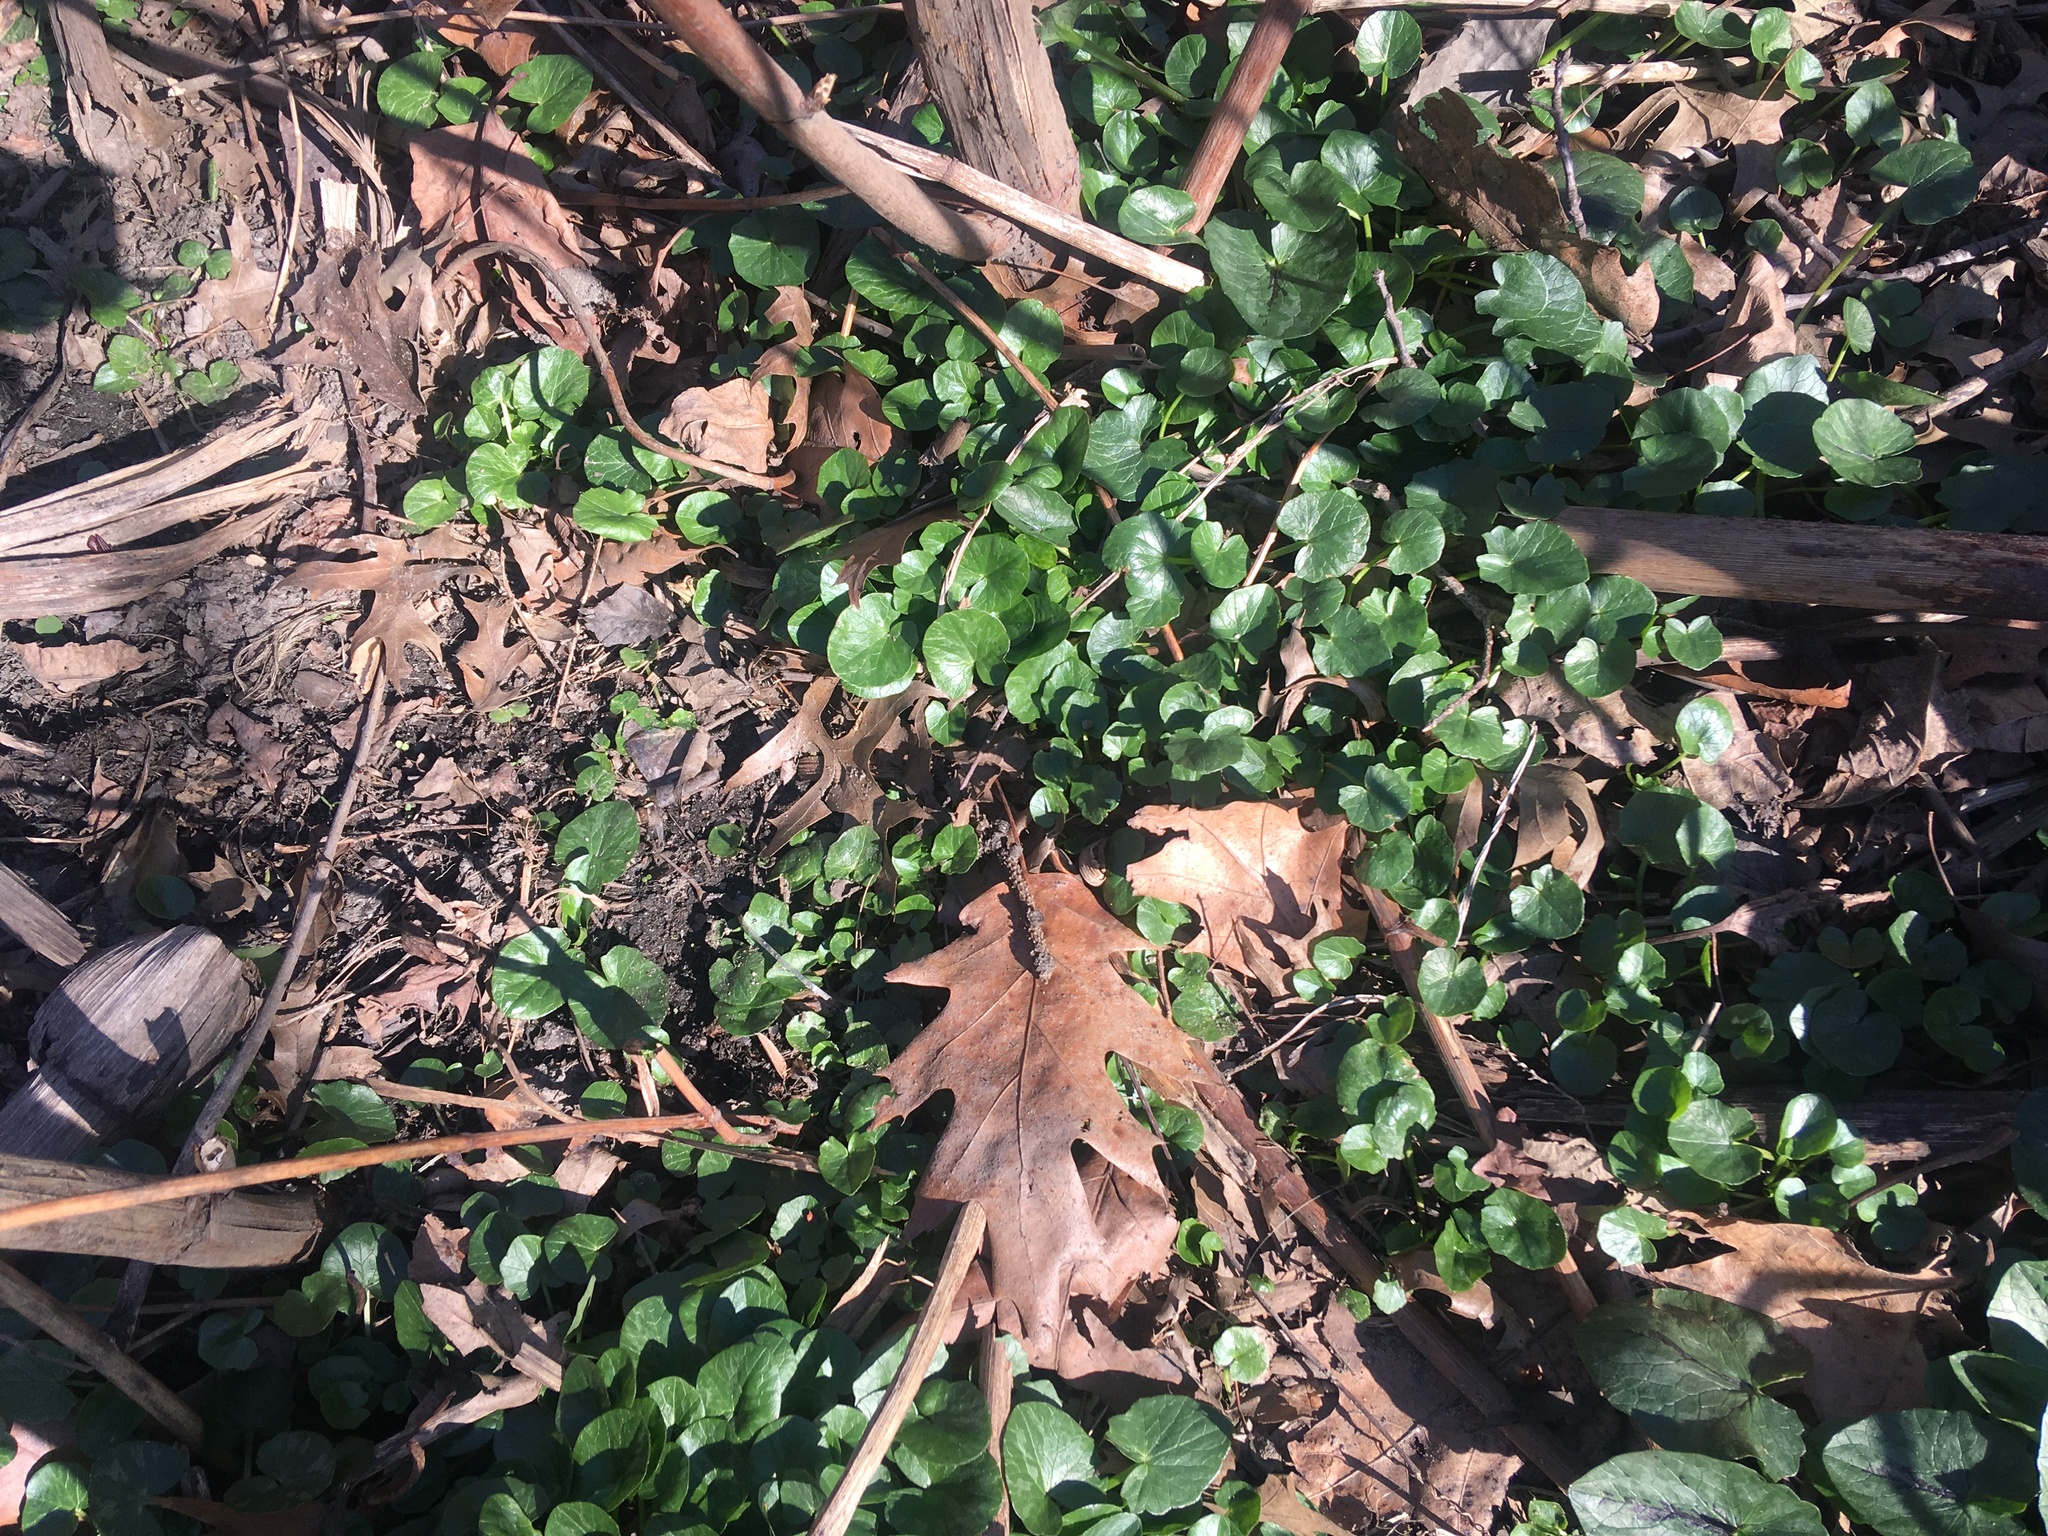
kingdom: Plantae
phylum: Tracheophyta
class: Magnoliopsida
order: Ranunculales
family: Ranunculaceae
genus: Ficaria
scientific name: Ficaria verna
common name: Lesser celandine
